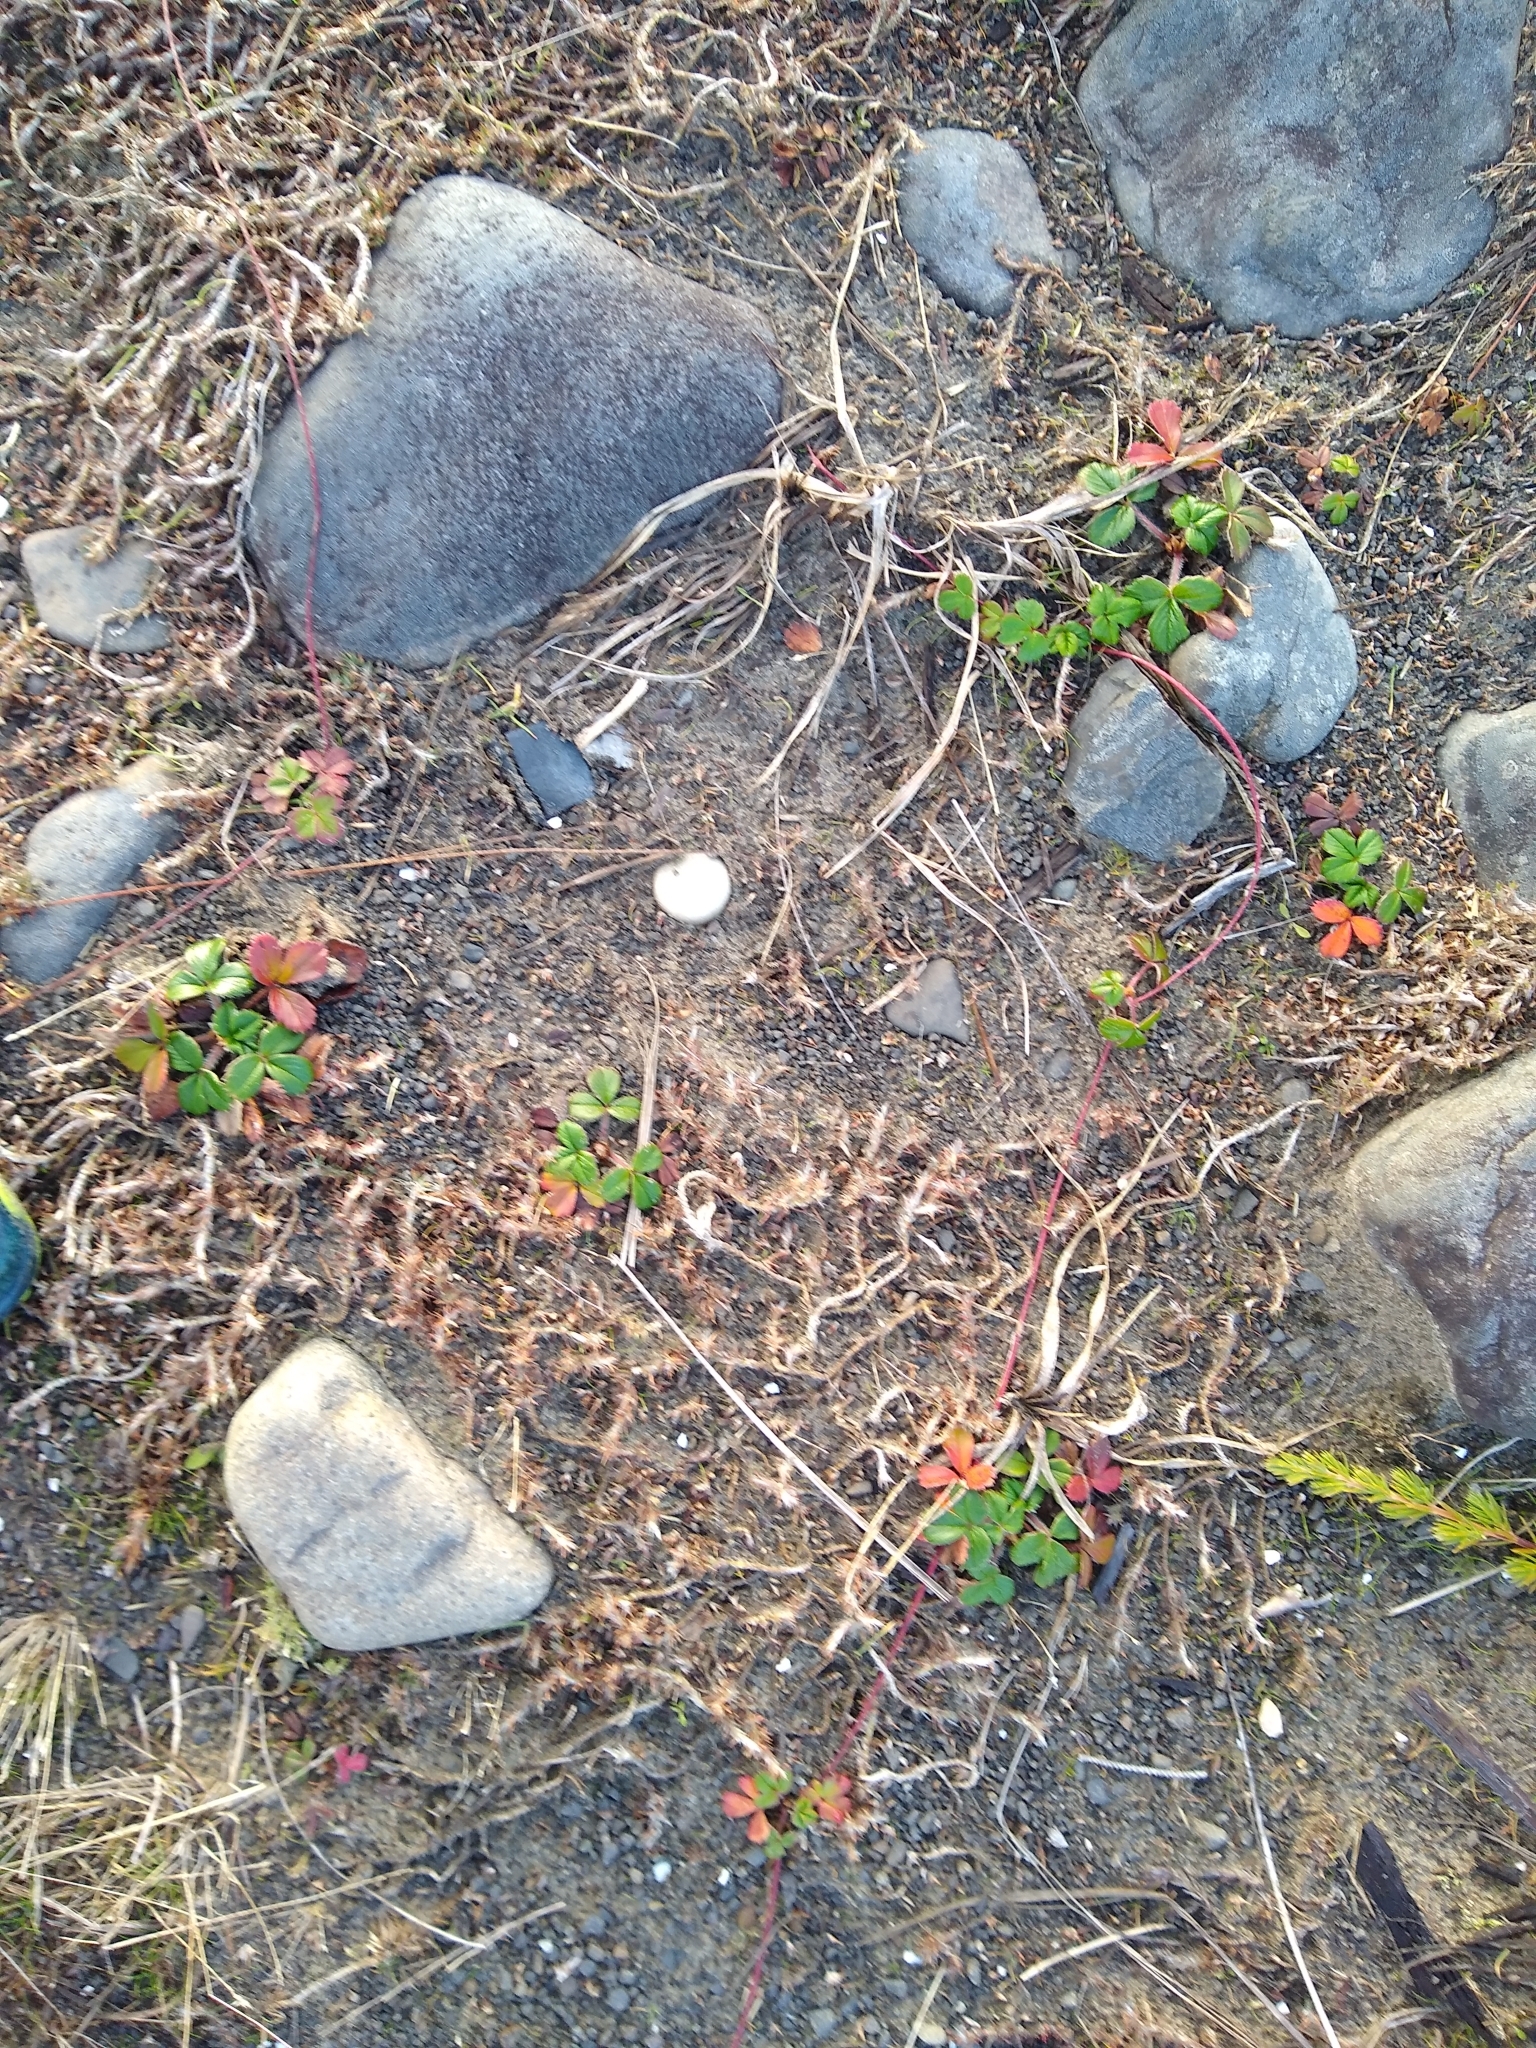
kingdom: Plantae
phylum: Tracheophyta
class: Magnoliopsida
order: Rosales
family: Rosaceae
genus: Fragaria
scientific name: Fragaria chiloensis
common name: Beach strawberry
